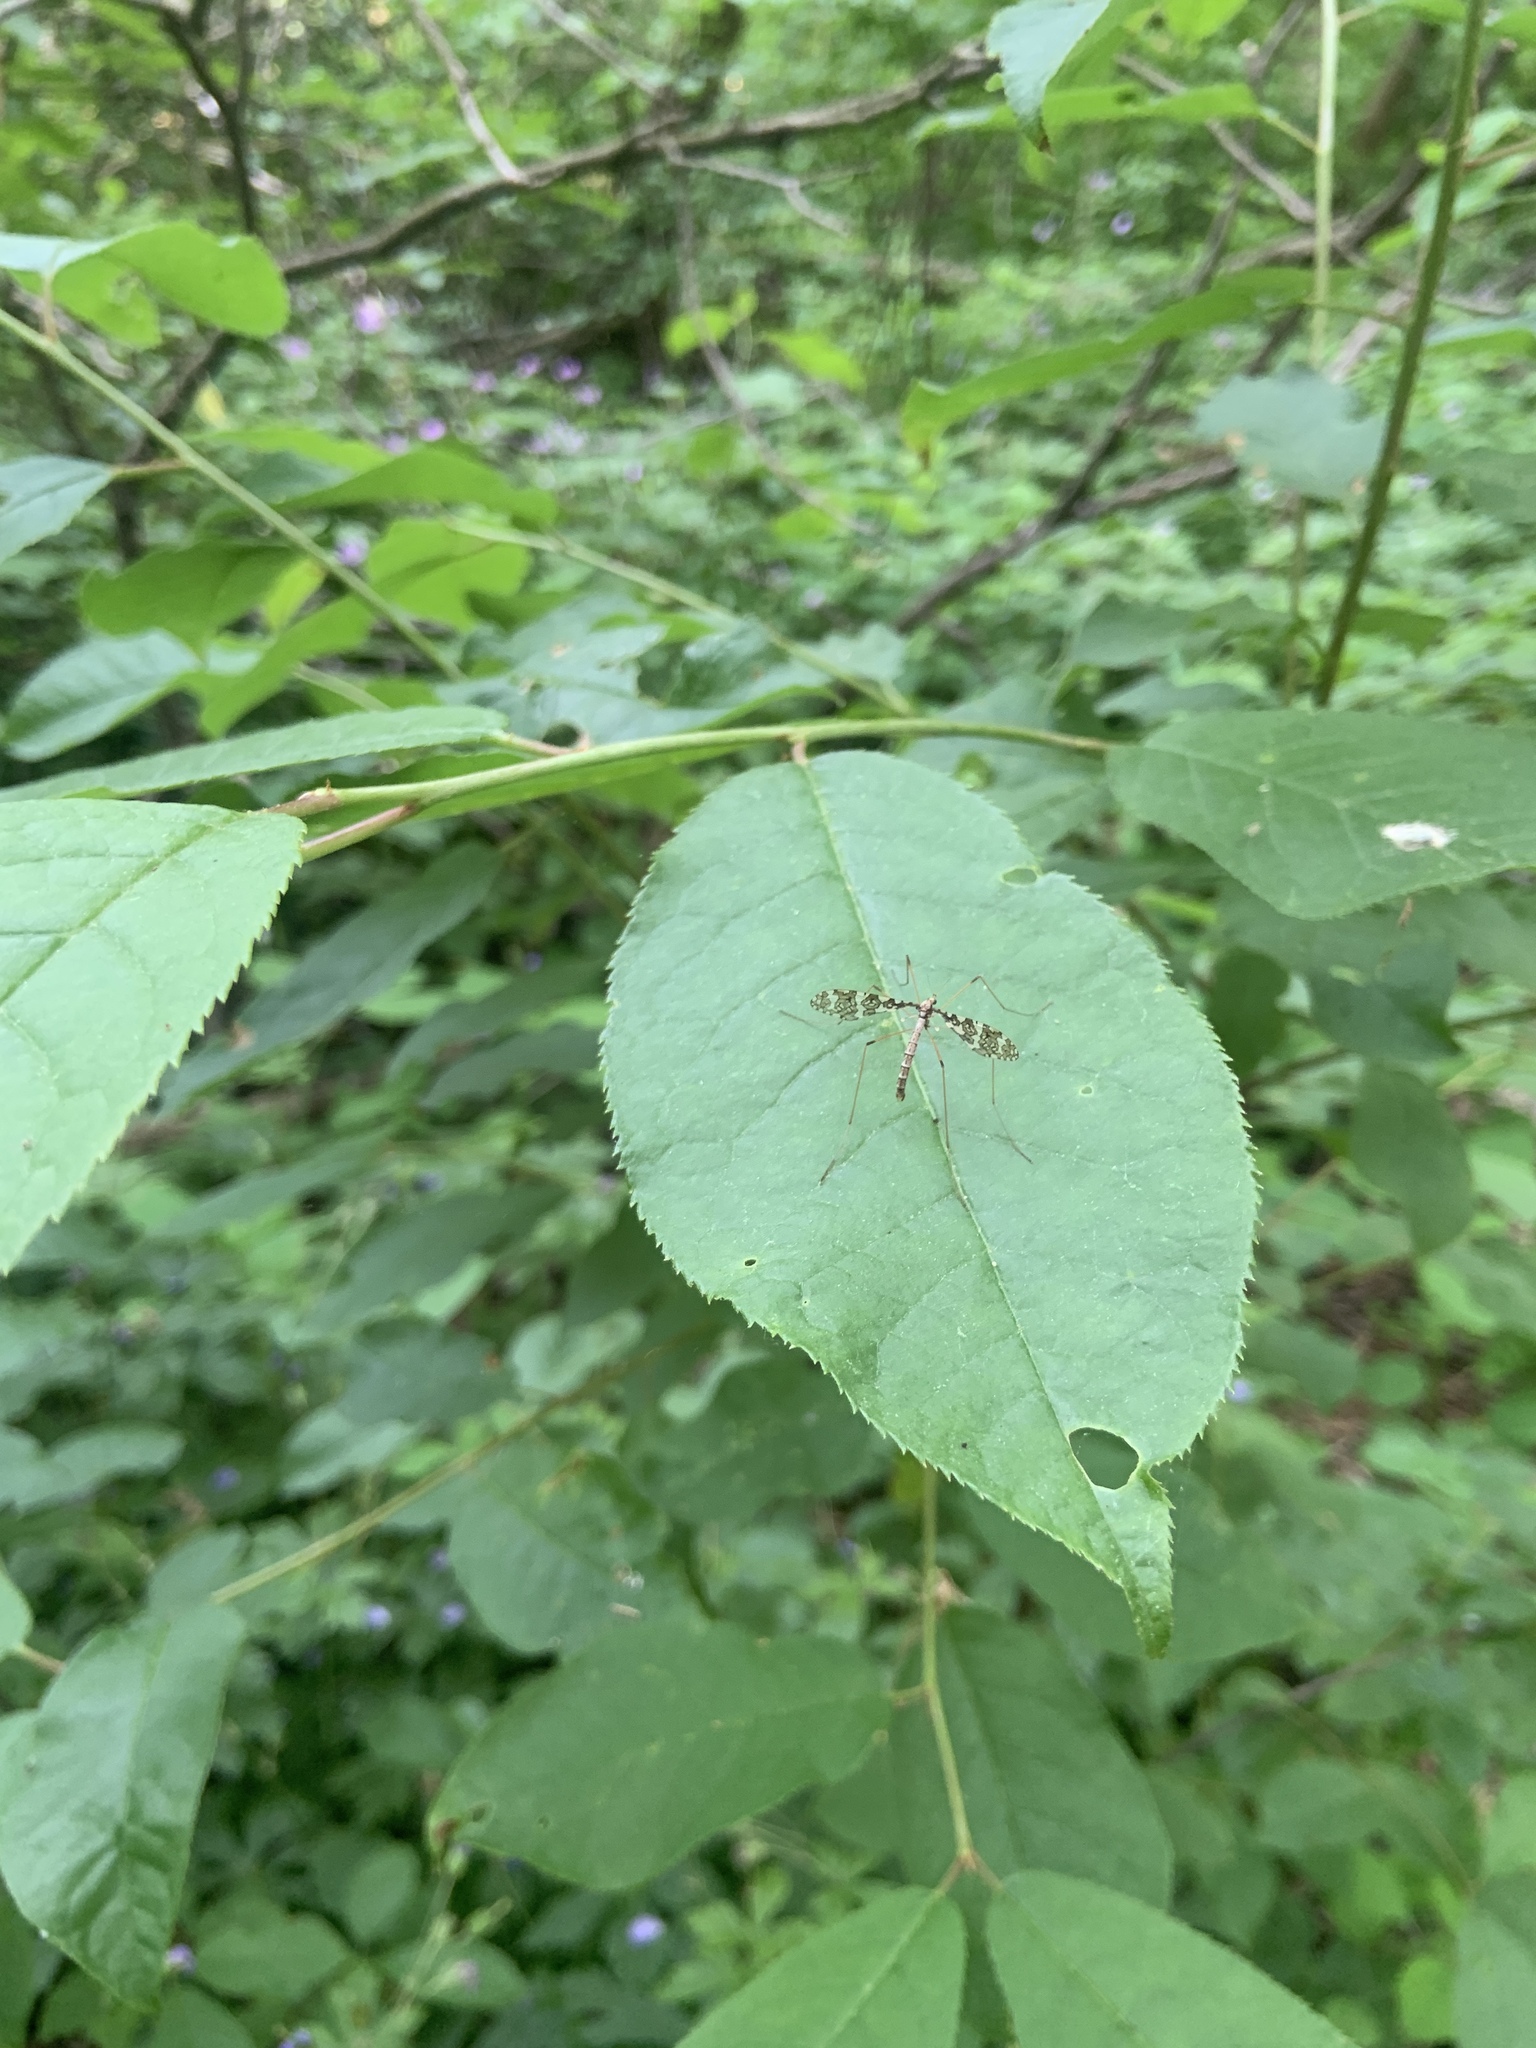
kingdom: Animalia
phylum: Arthropoda
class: Insecta
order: Diptera
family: Limoniidae
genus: Epiphragma
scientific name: Epiphragma fasciapenne
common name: Band-winged crane fly
